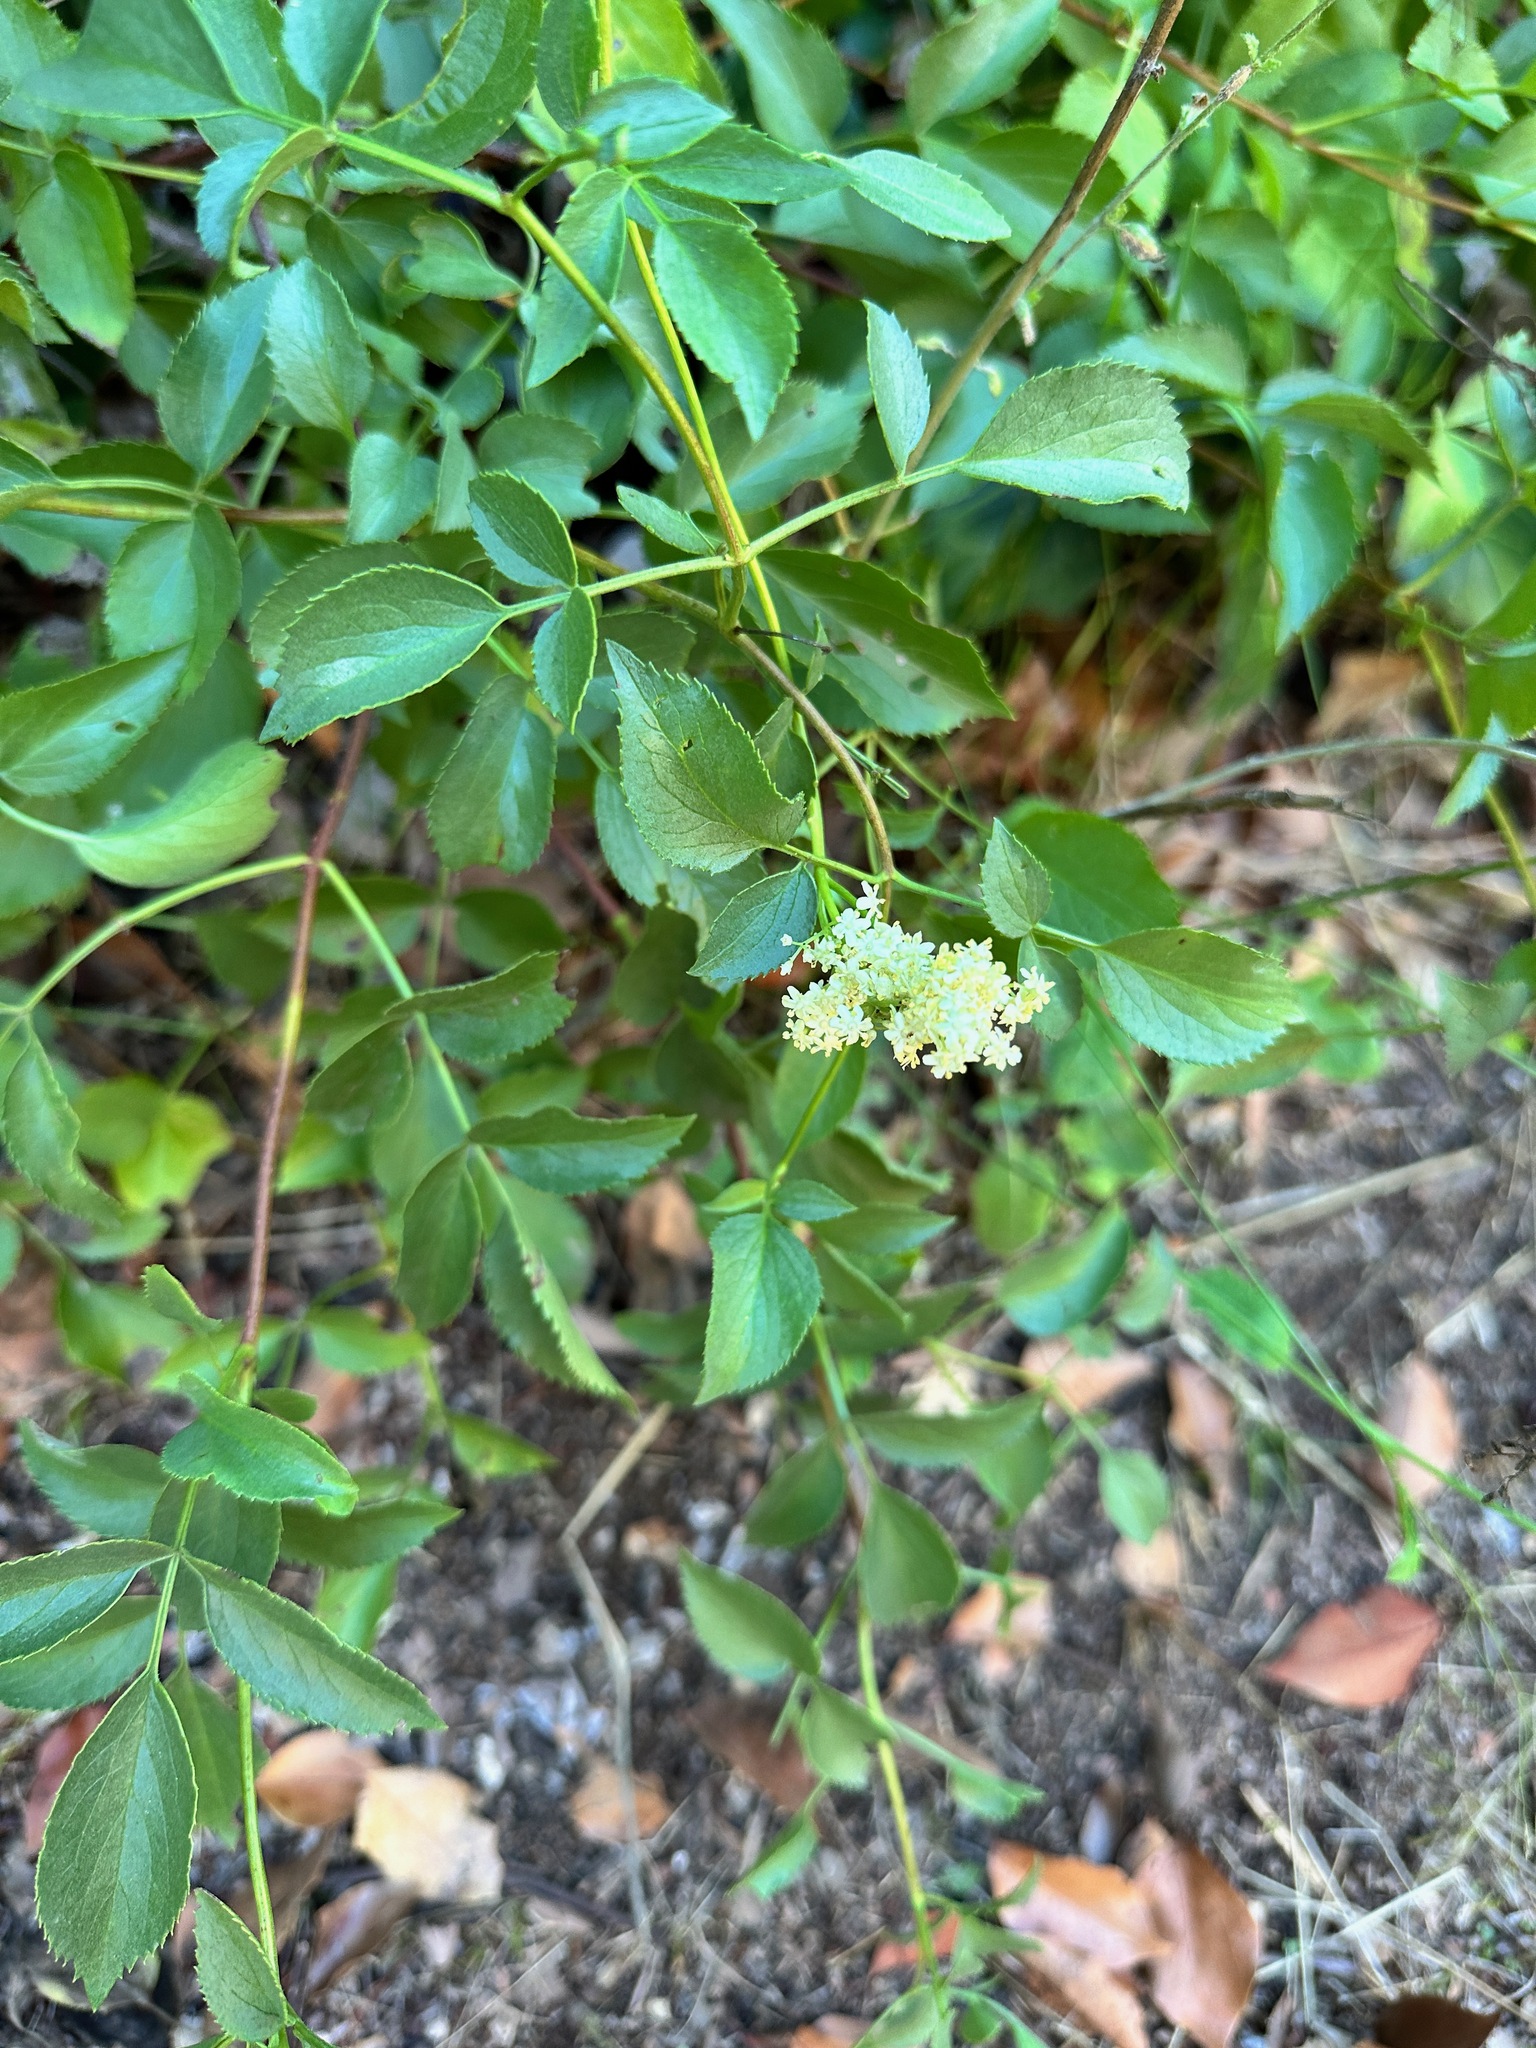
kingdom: Plantae
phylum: Tracheophyta
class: Magnoliopsida
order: Dipsacales
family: Viburnaceae
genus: Sambucus
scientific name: Sambucus cerulea
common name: Blue elder
